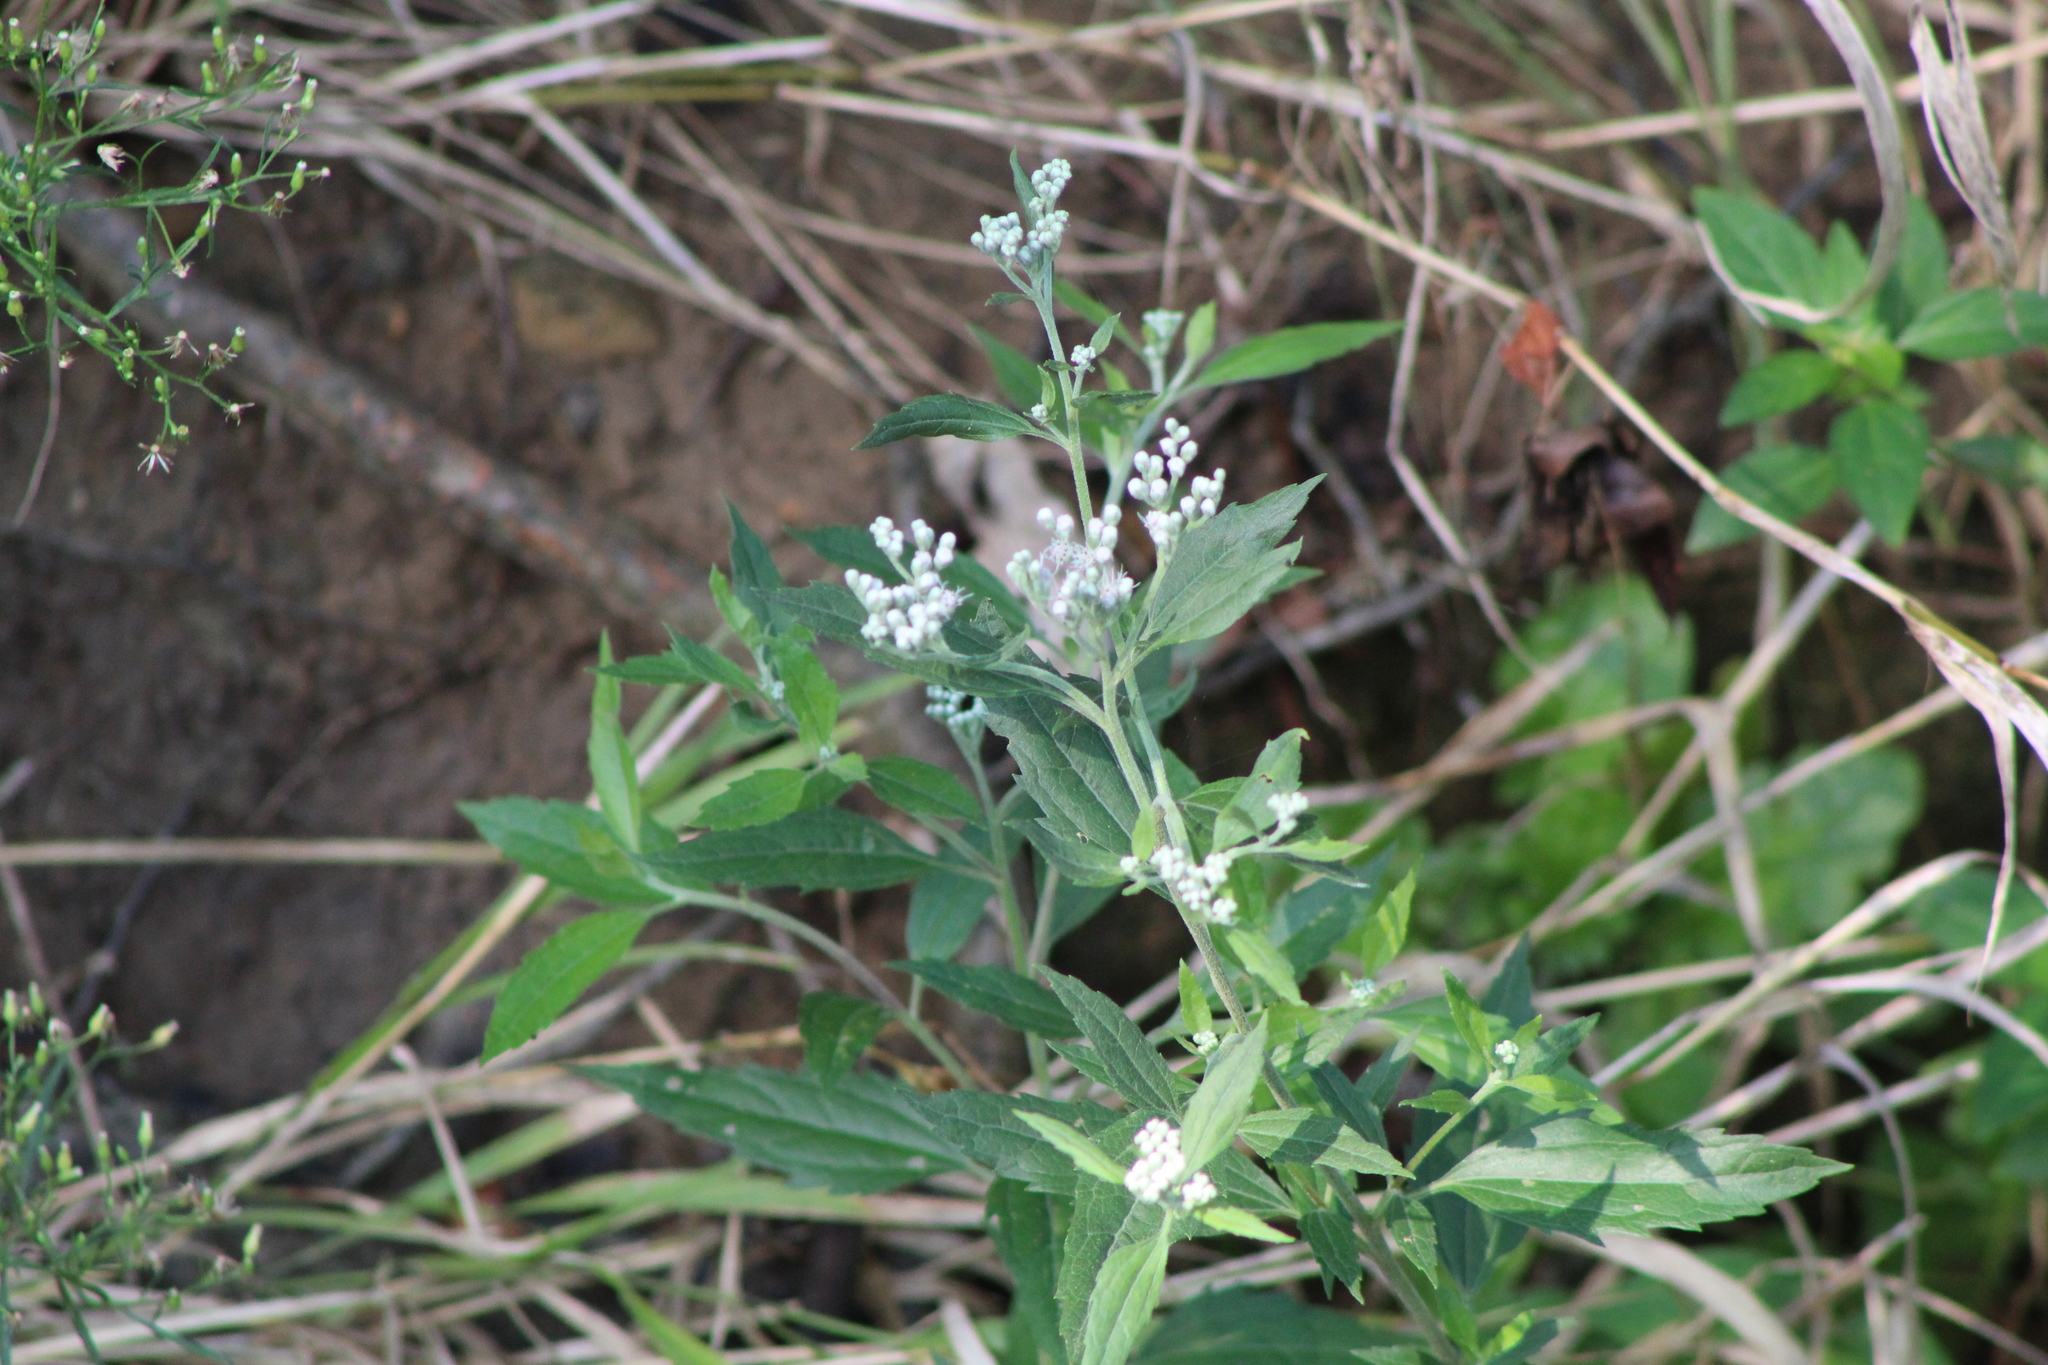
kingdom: Plantae
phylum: Tracheophyta
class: Magnoliopsida
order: Asterales
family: Asteraceae
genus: Eupatorium
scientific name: Eupatorium serotinum
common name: Late boneset
